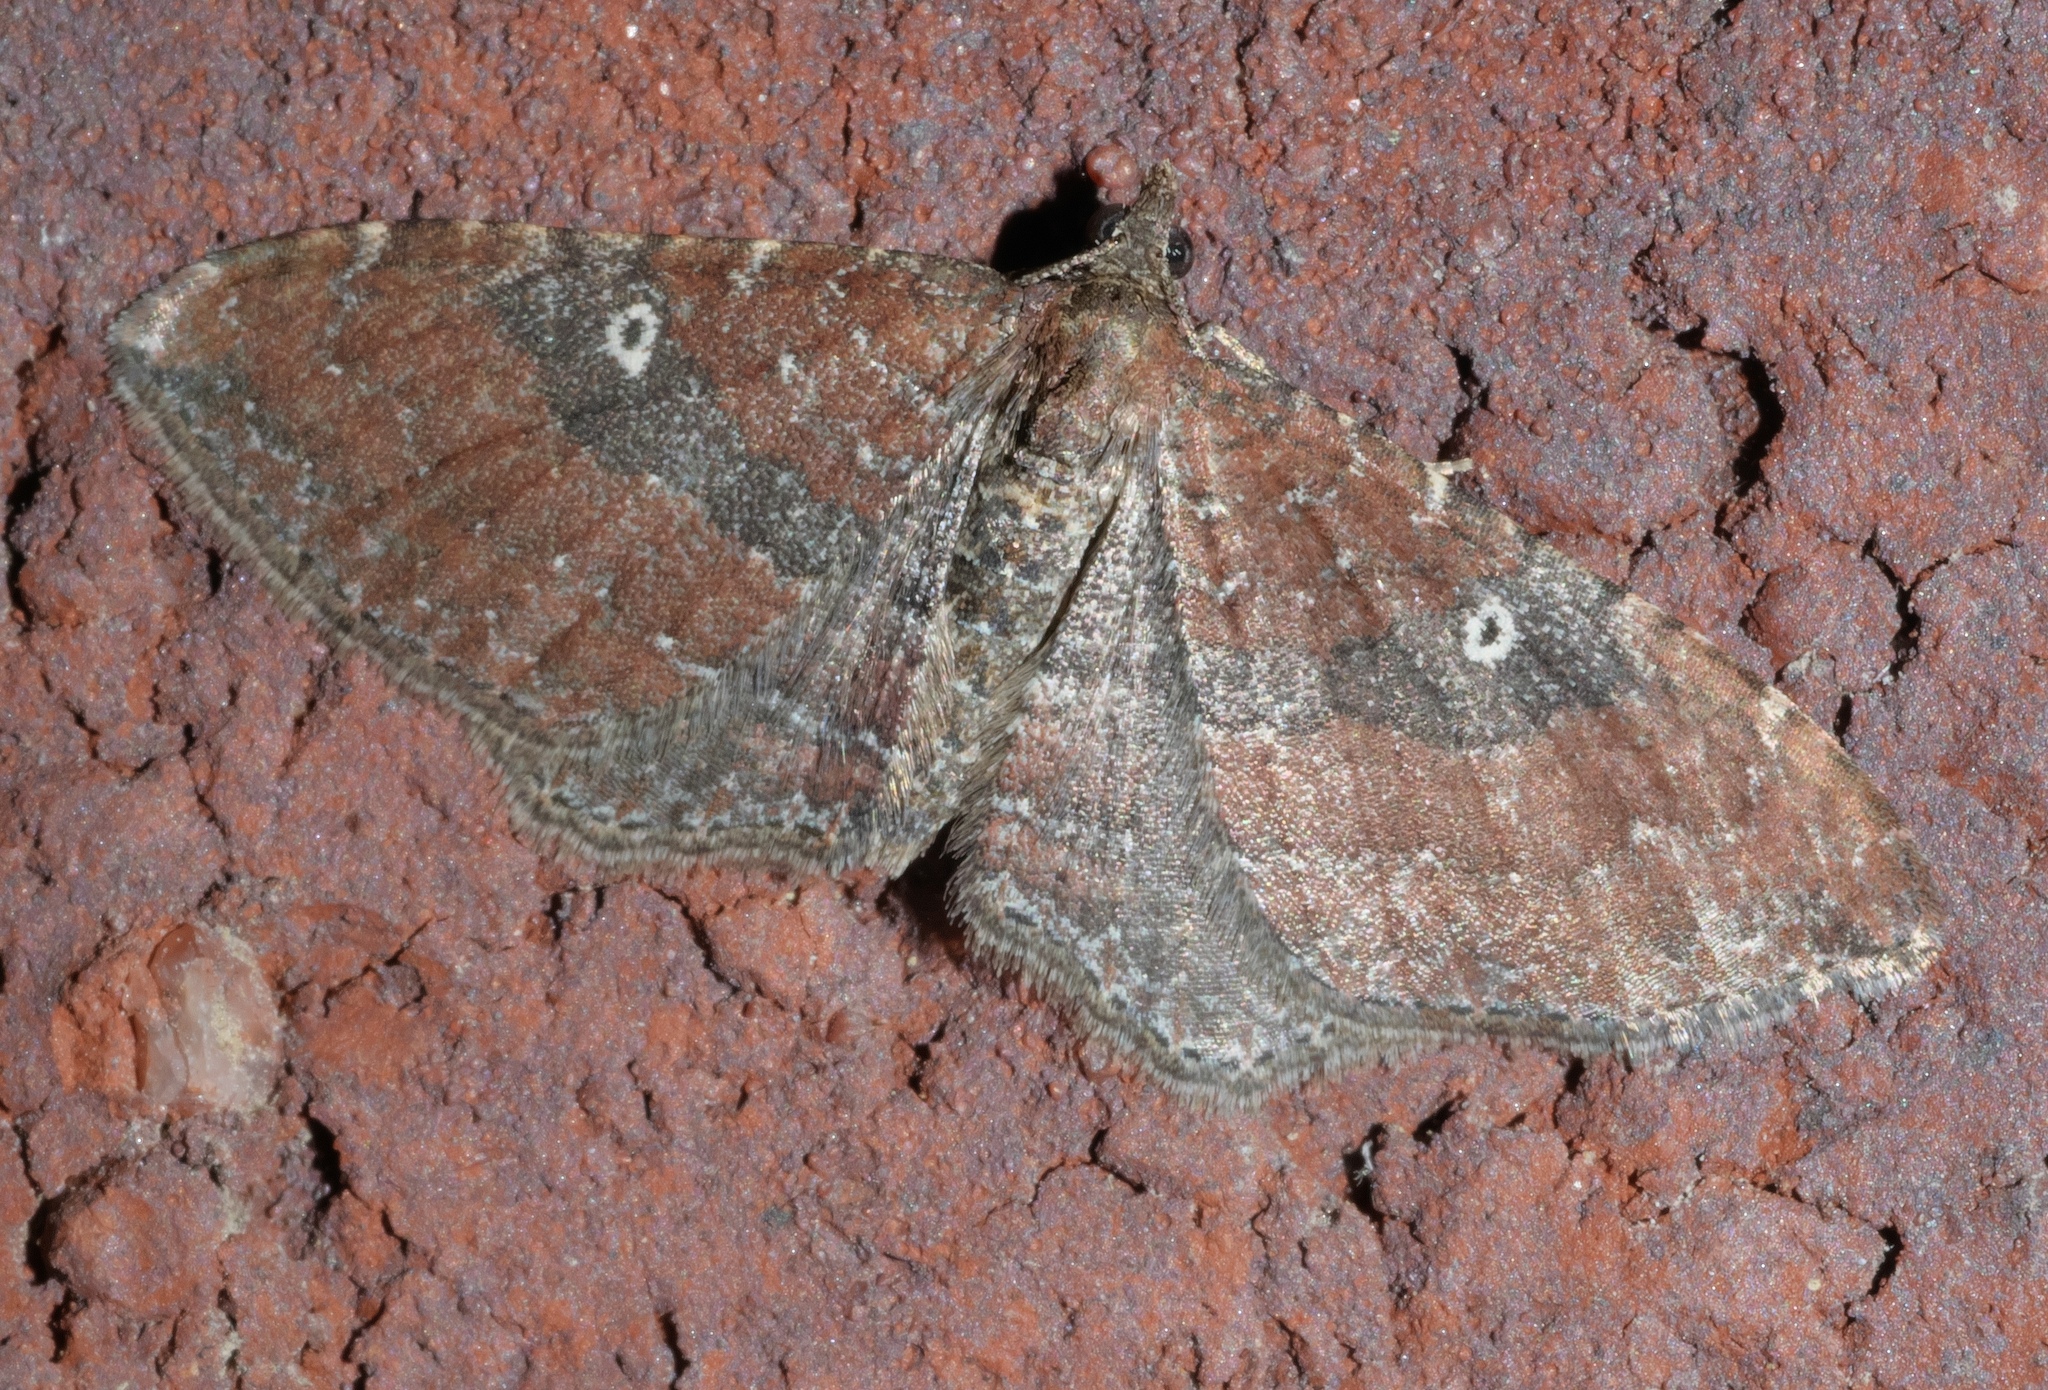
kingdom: Animalia
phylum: Arthropoda
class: Insecta
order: Lepidoptera
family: Geometridae
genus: Orthonama
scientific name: Orthonama obstipata
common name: The gem
